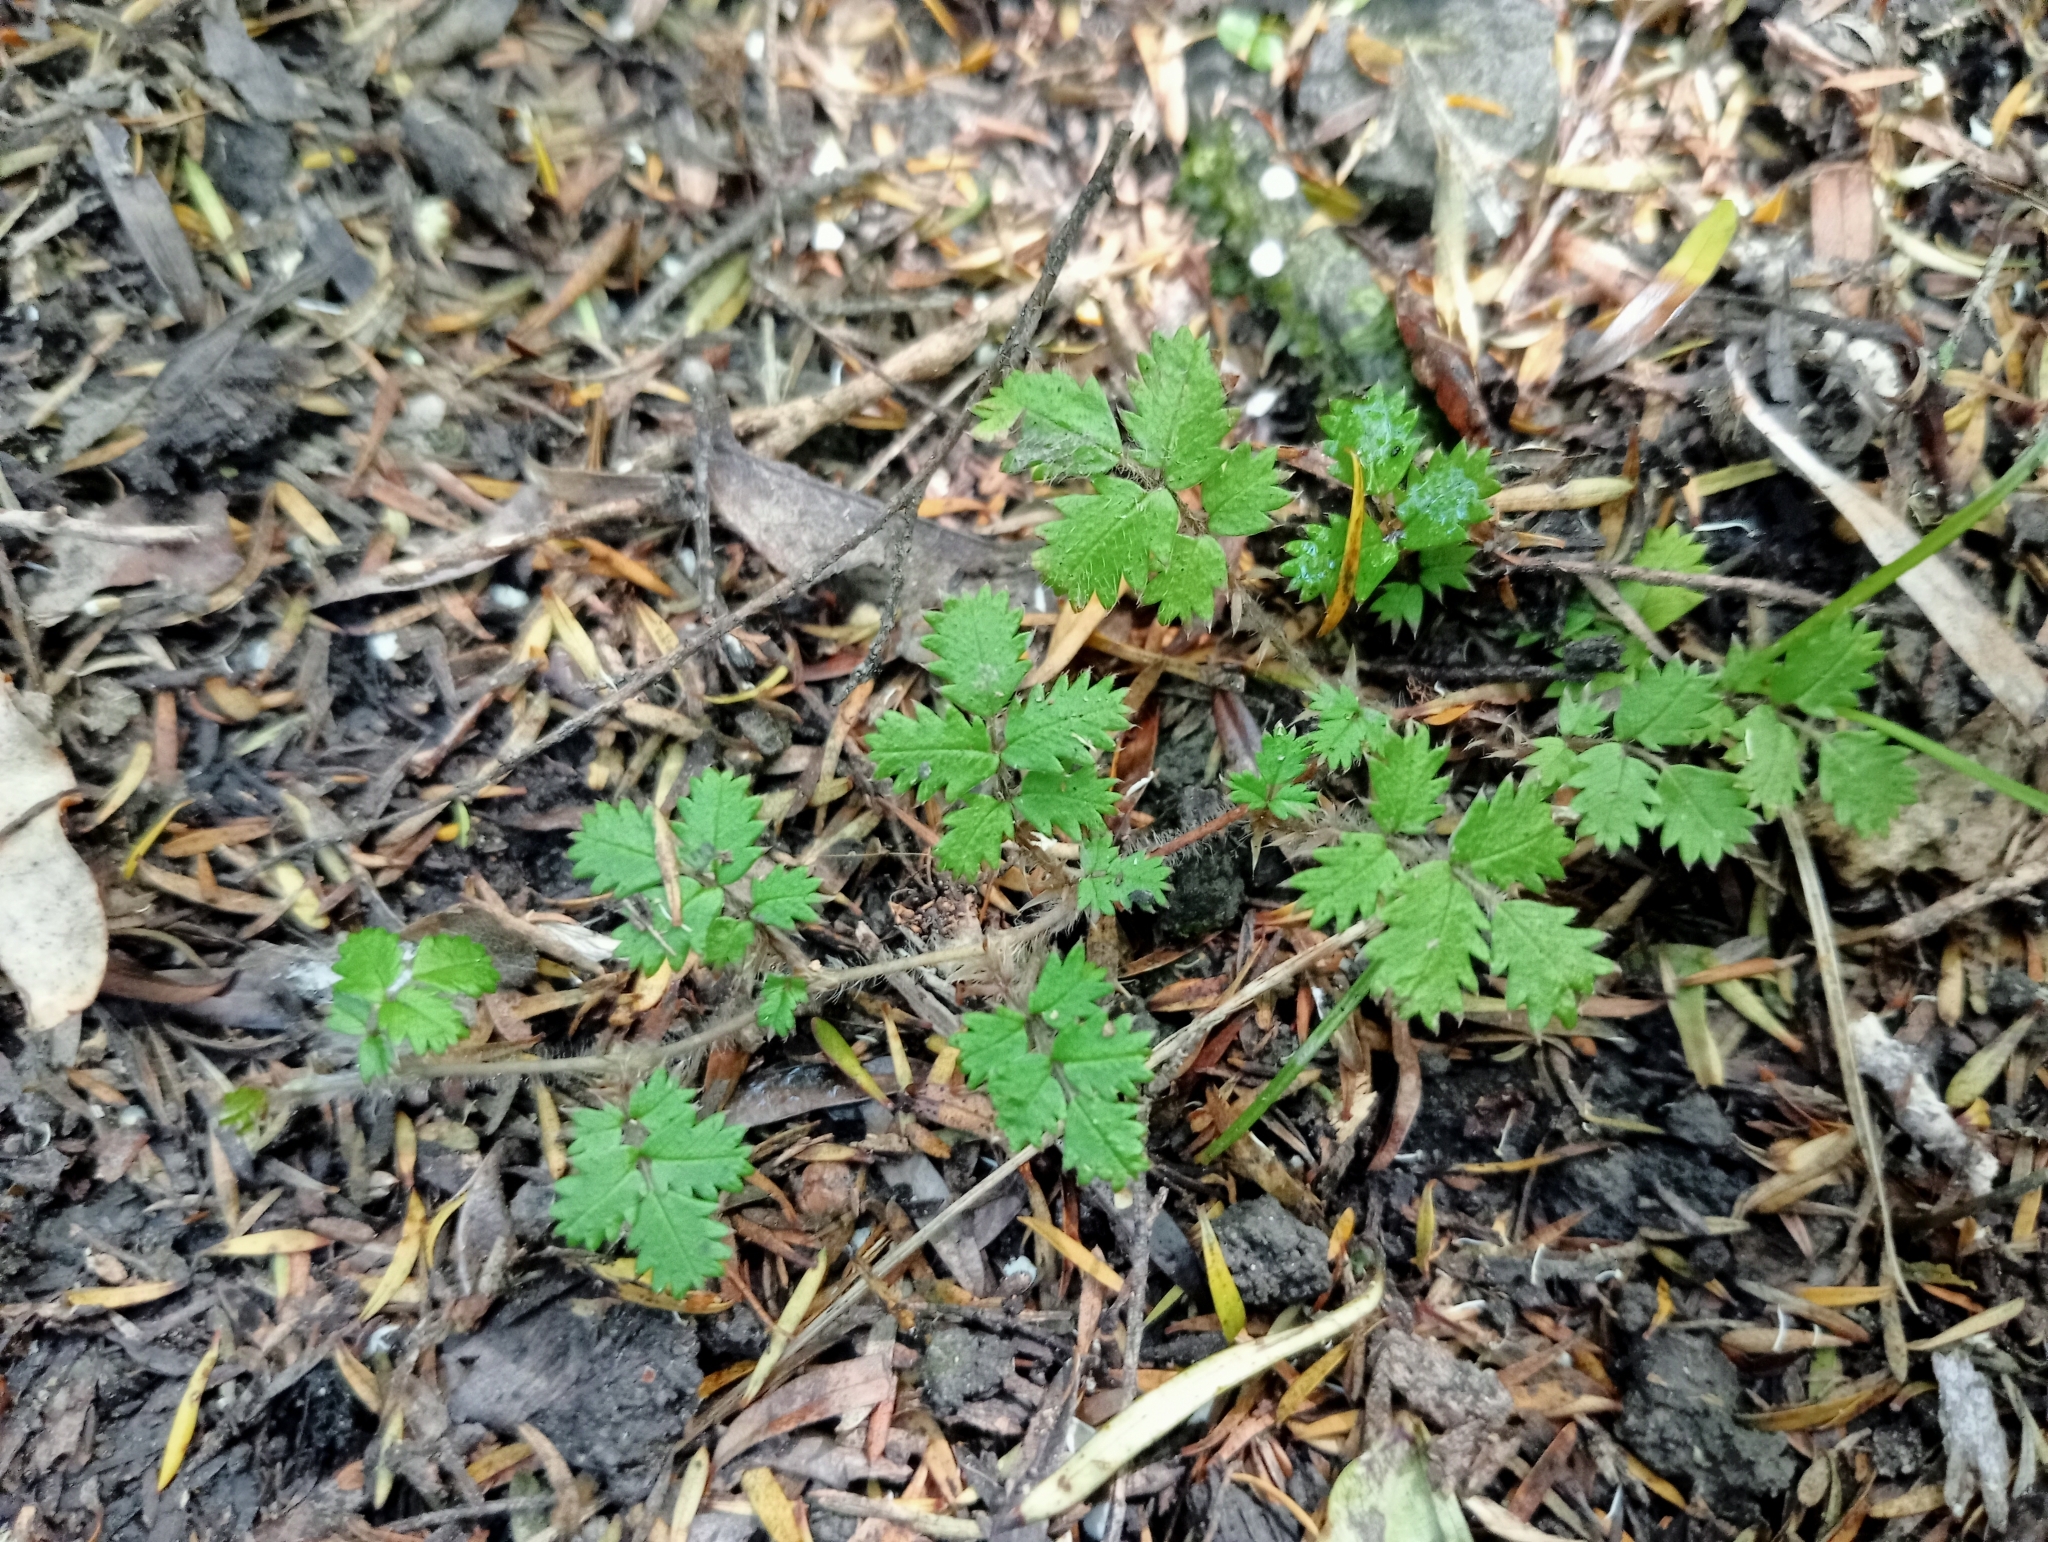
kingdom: Plantae
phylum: Tracheophyta
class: Magnoliopsida
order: Rosales
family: Rosaceae
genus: Acaena
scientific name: Acaena juvenca
